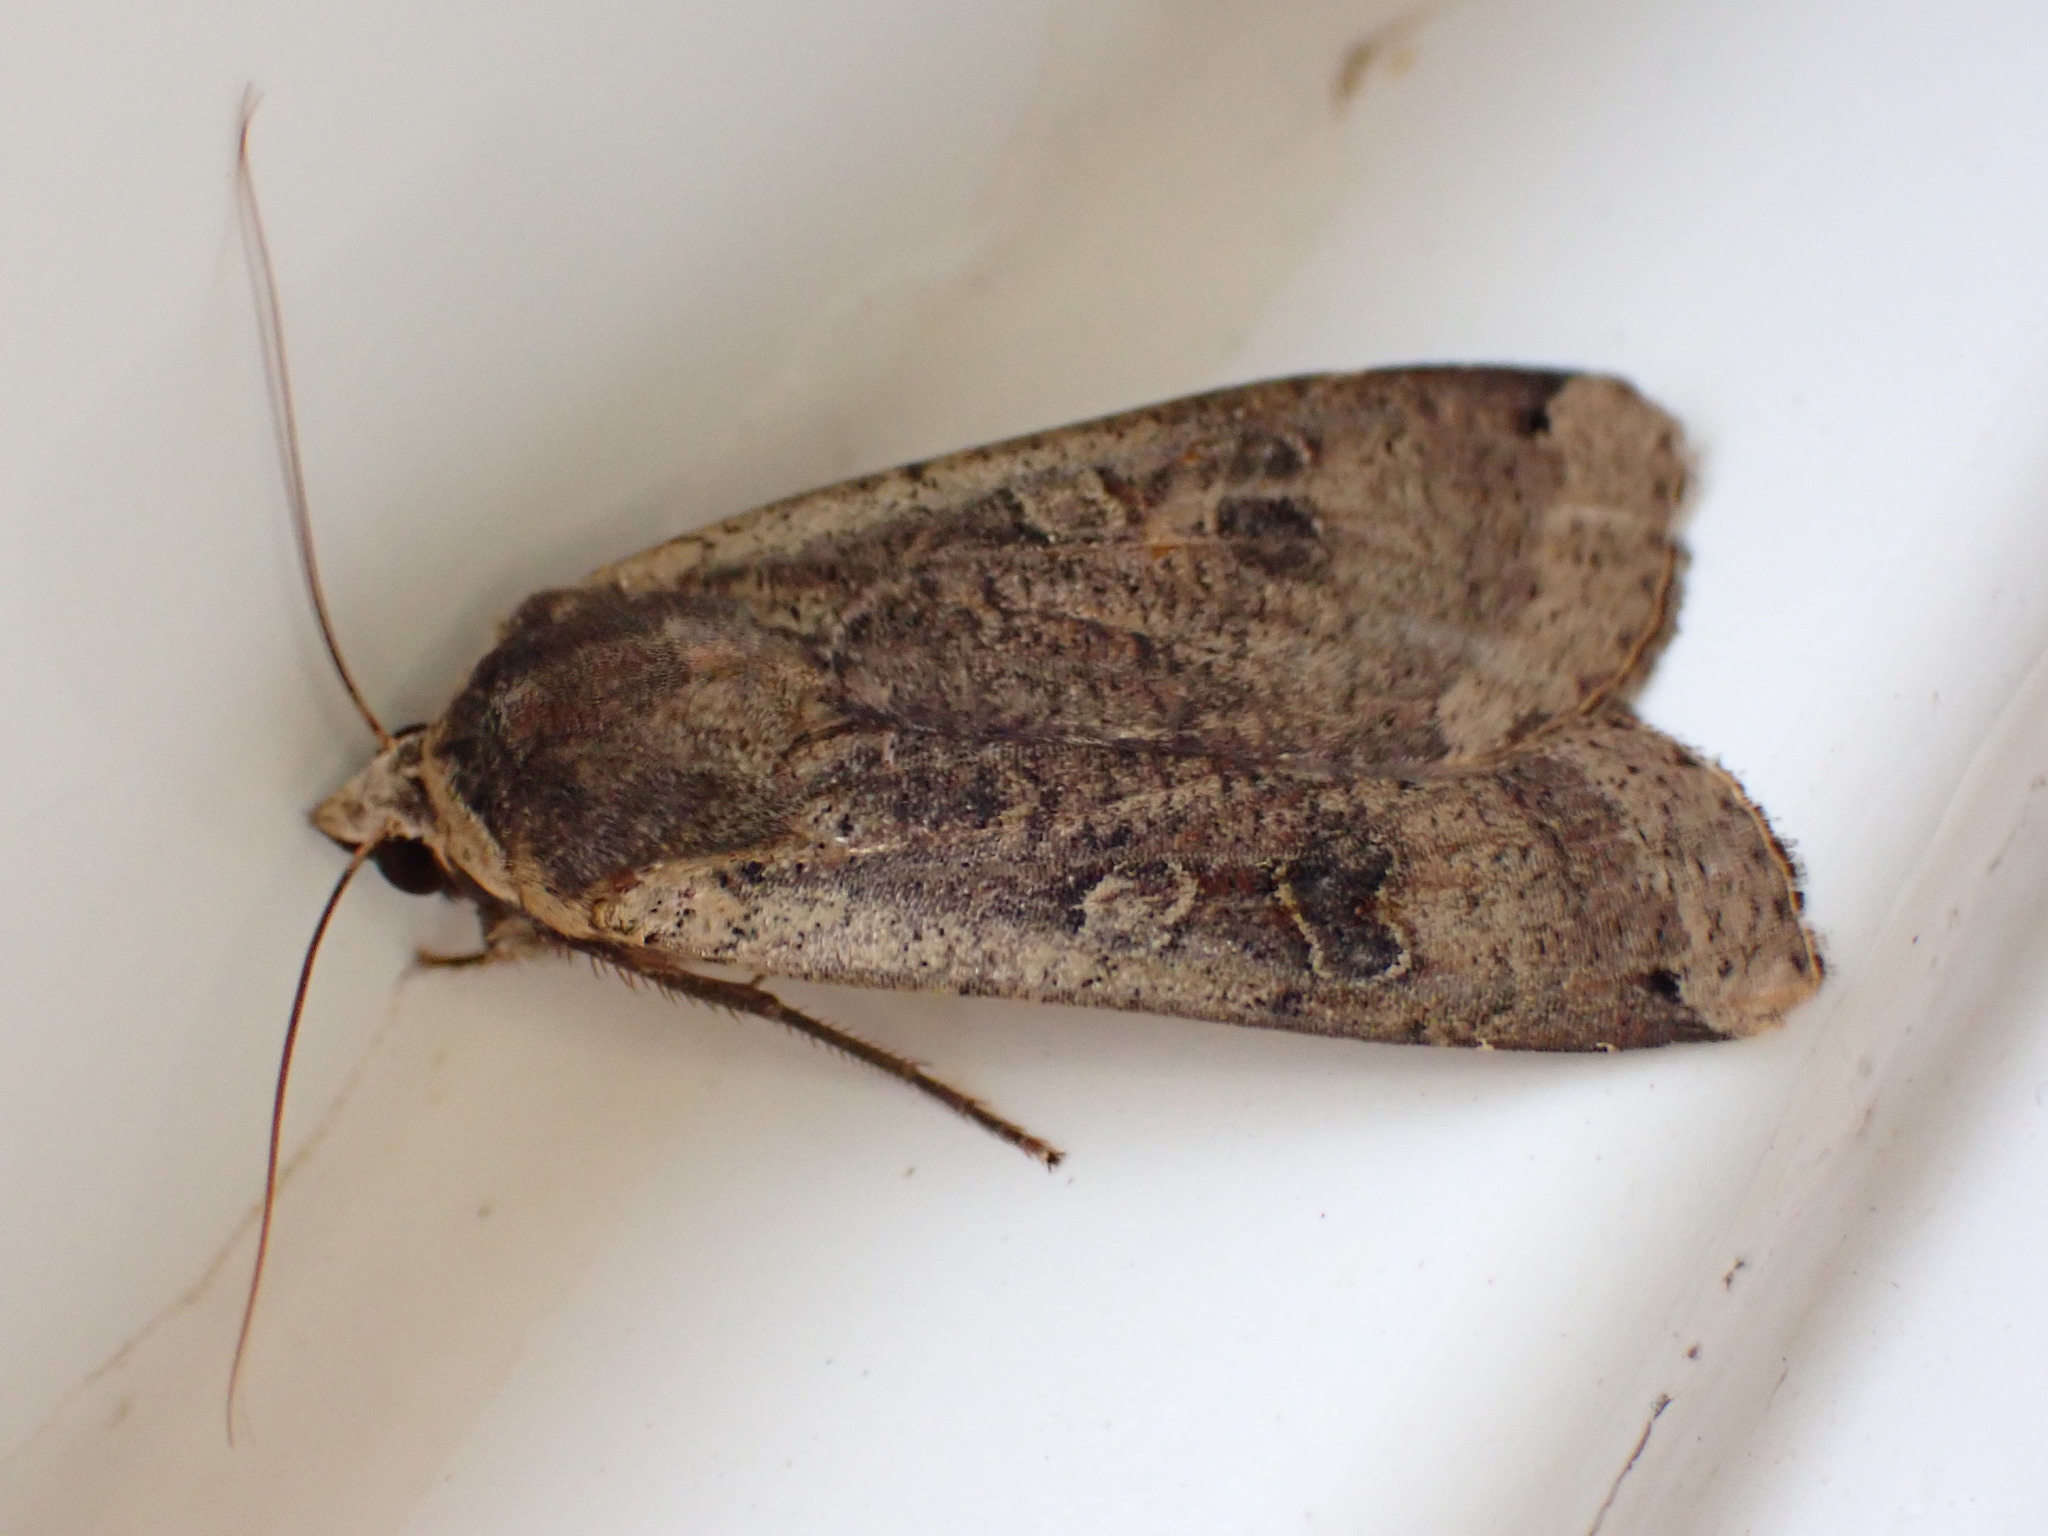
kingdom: Animalia
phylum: Arthropoda
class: Insecta
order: Lepidoptera
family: Noctuidae
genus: Noctua
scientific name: Noctua pronuba
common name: Large yellow underwing
